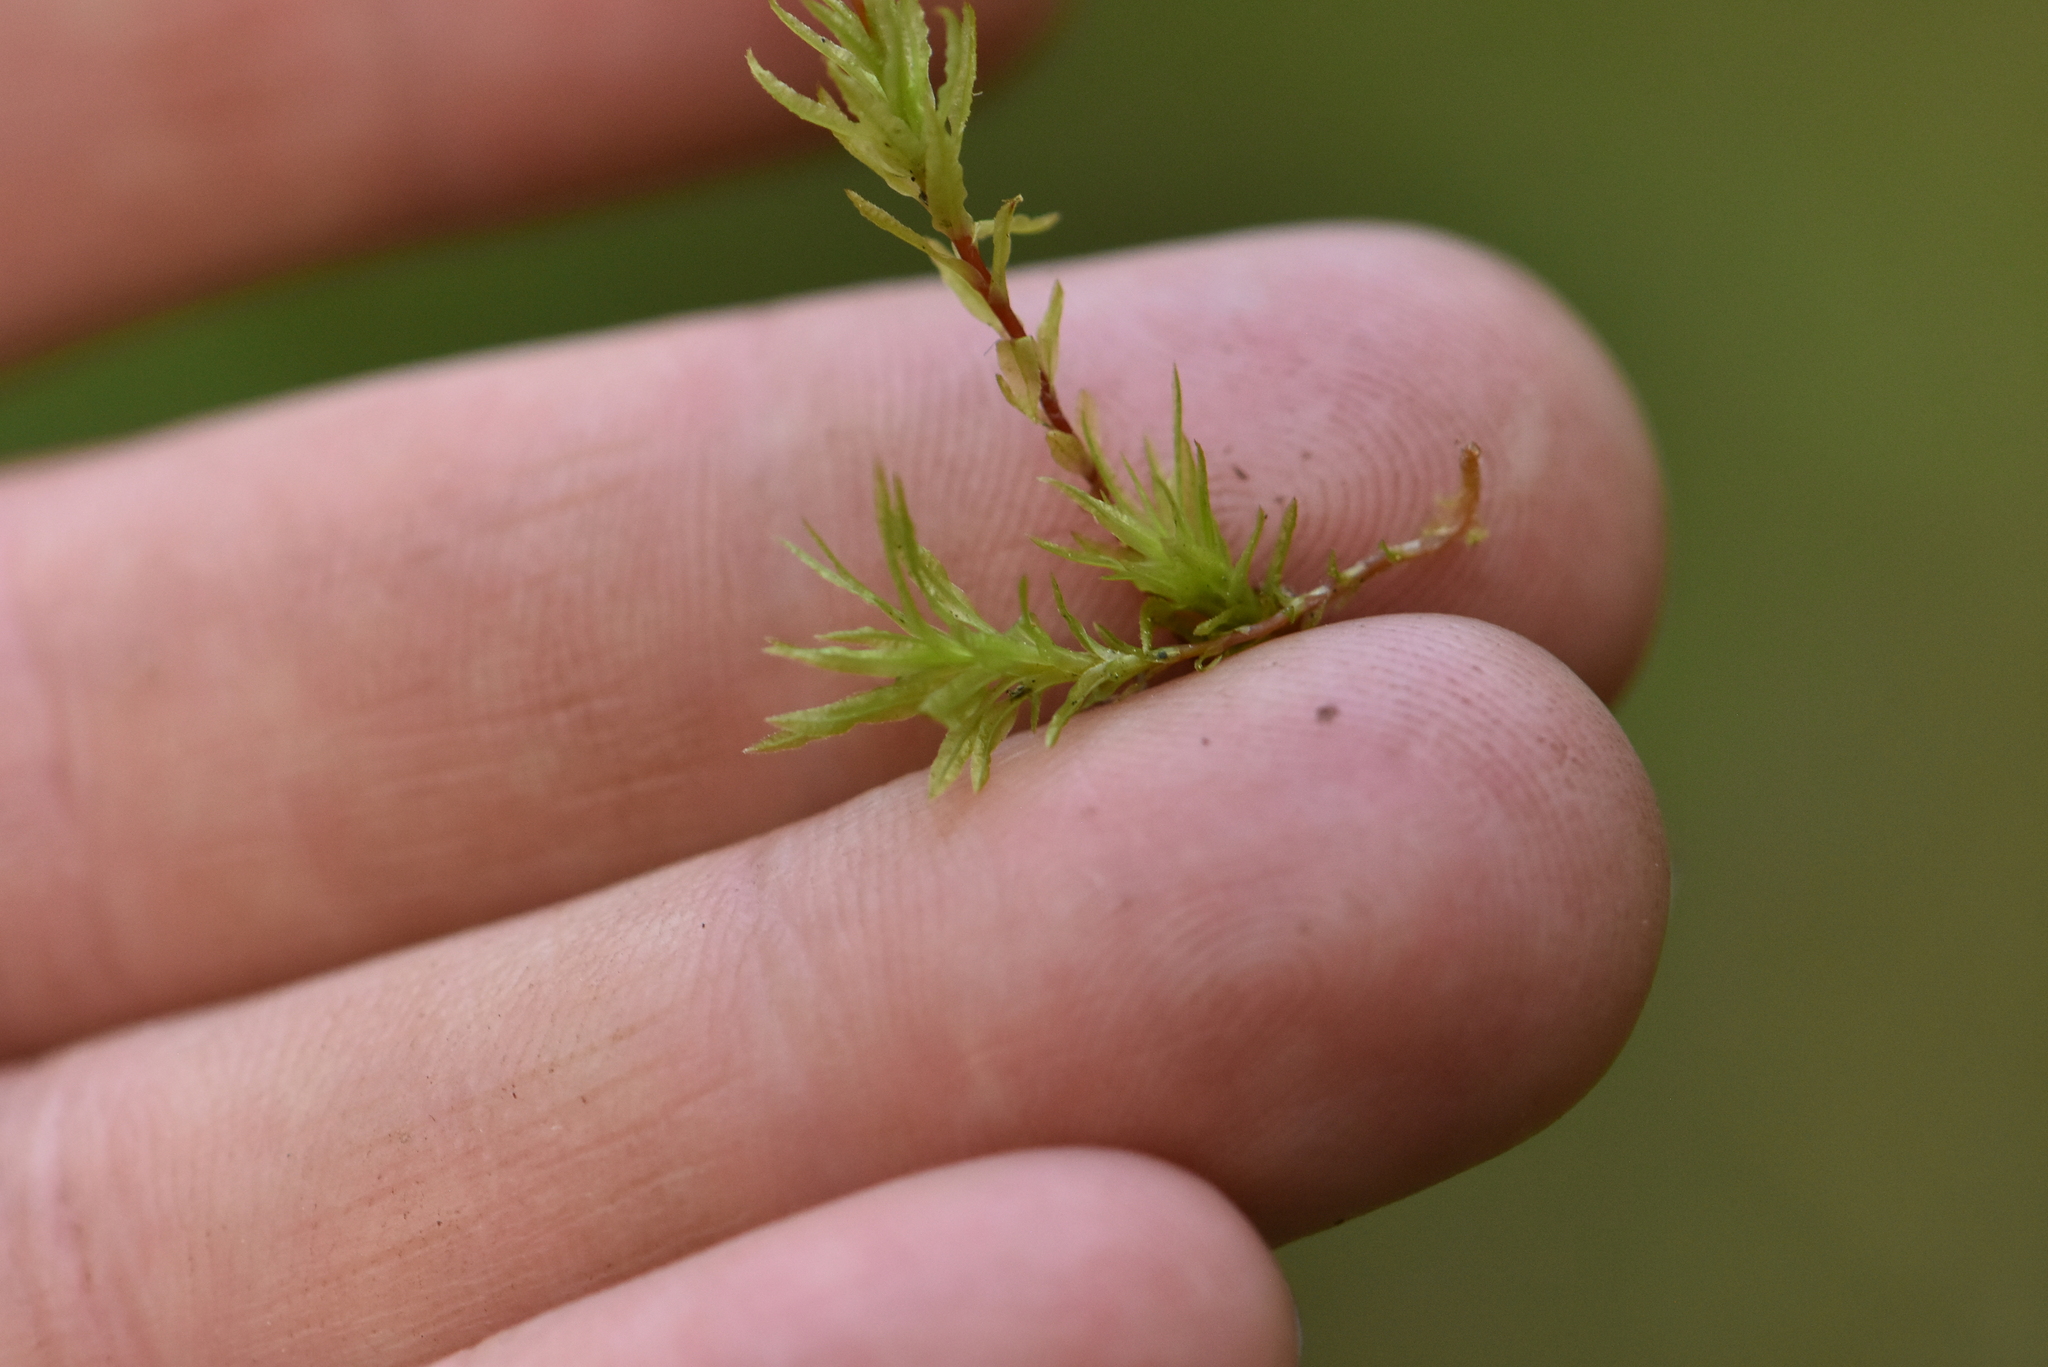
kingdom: Plantae
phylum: Bryophyta
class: Polytrichopsida
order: Polytrichales
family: Polytrichaceae
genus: Atrichum
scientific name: Atrichum undulatum
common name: Common smoothcap
